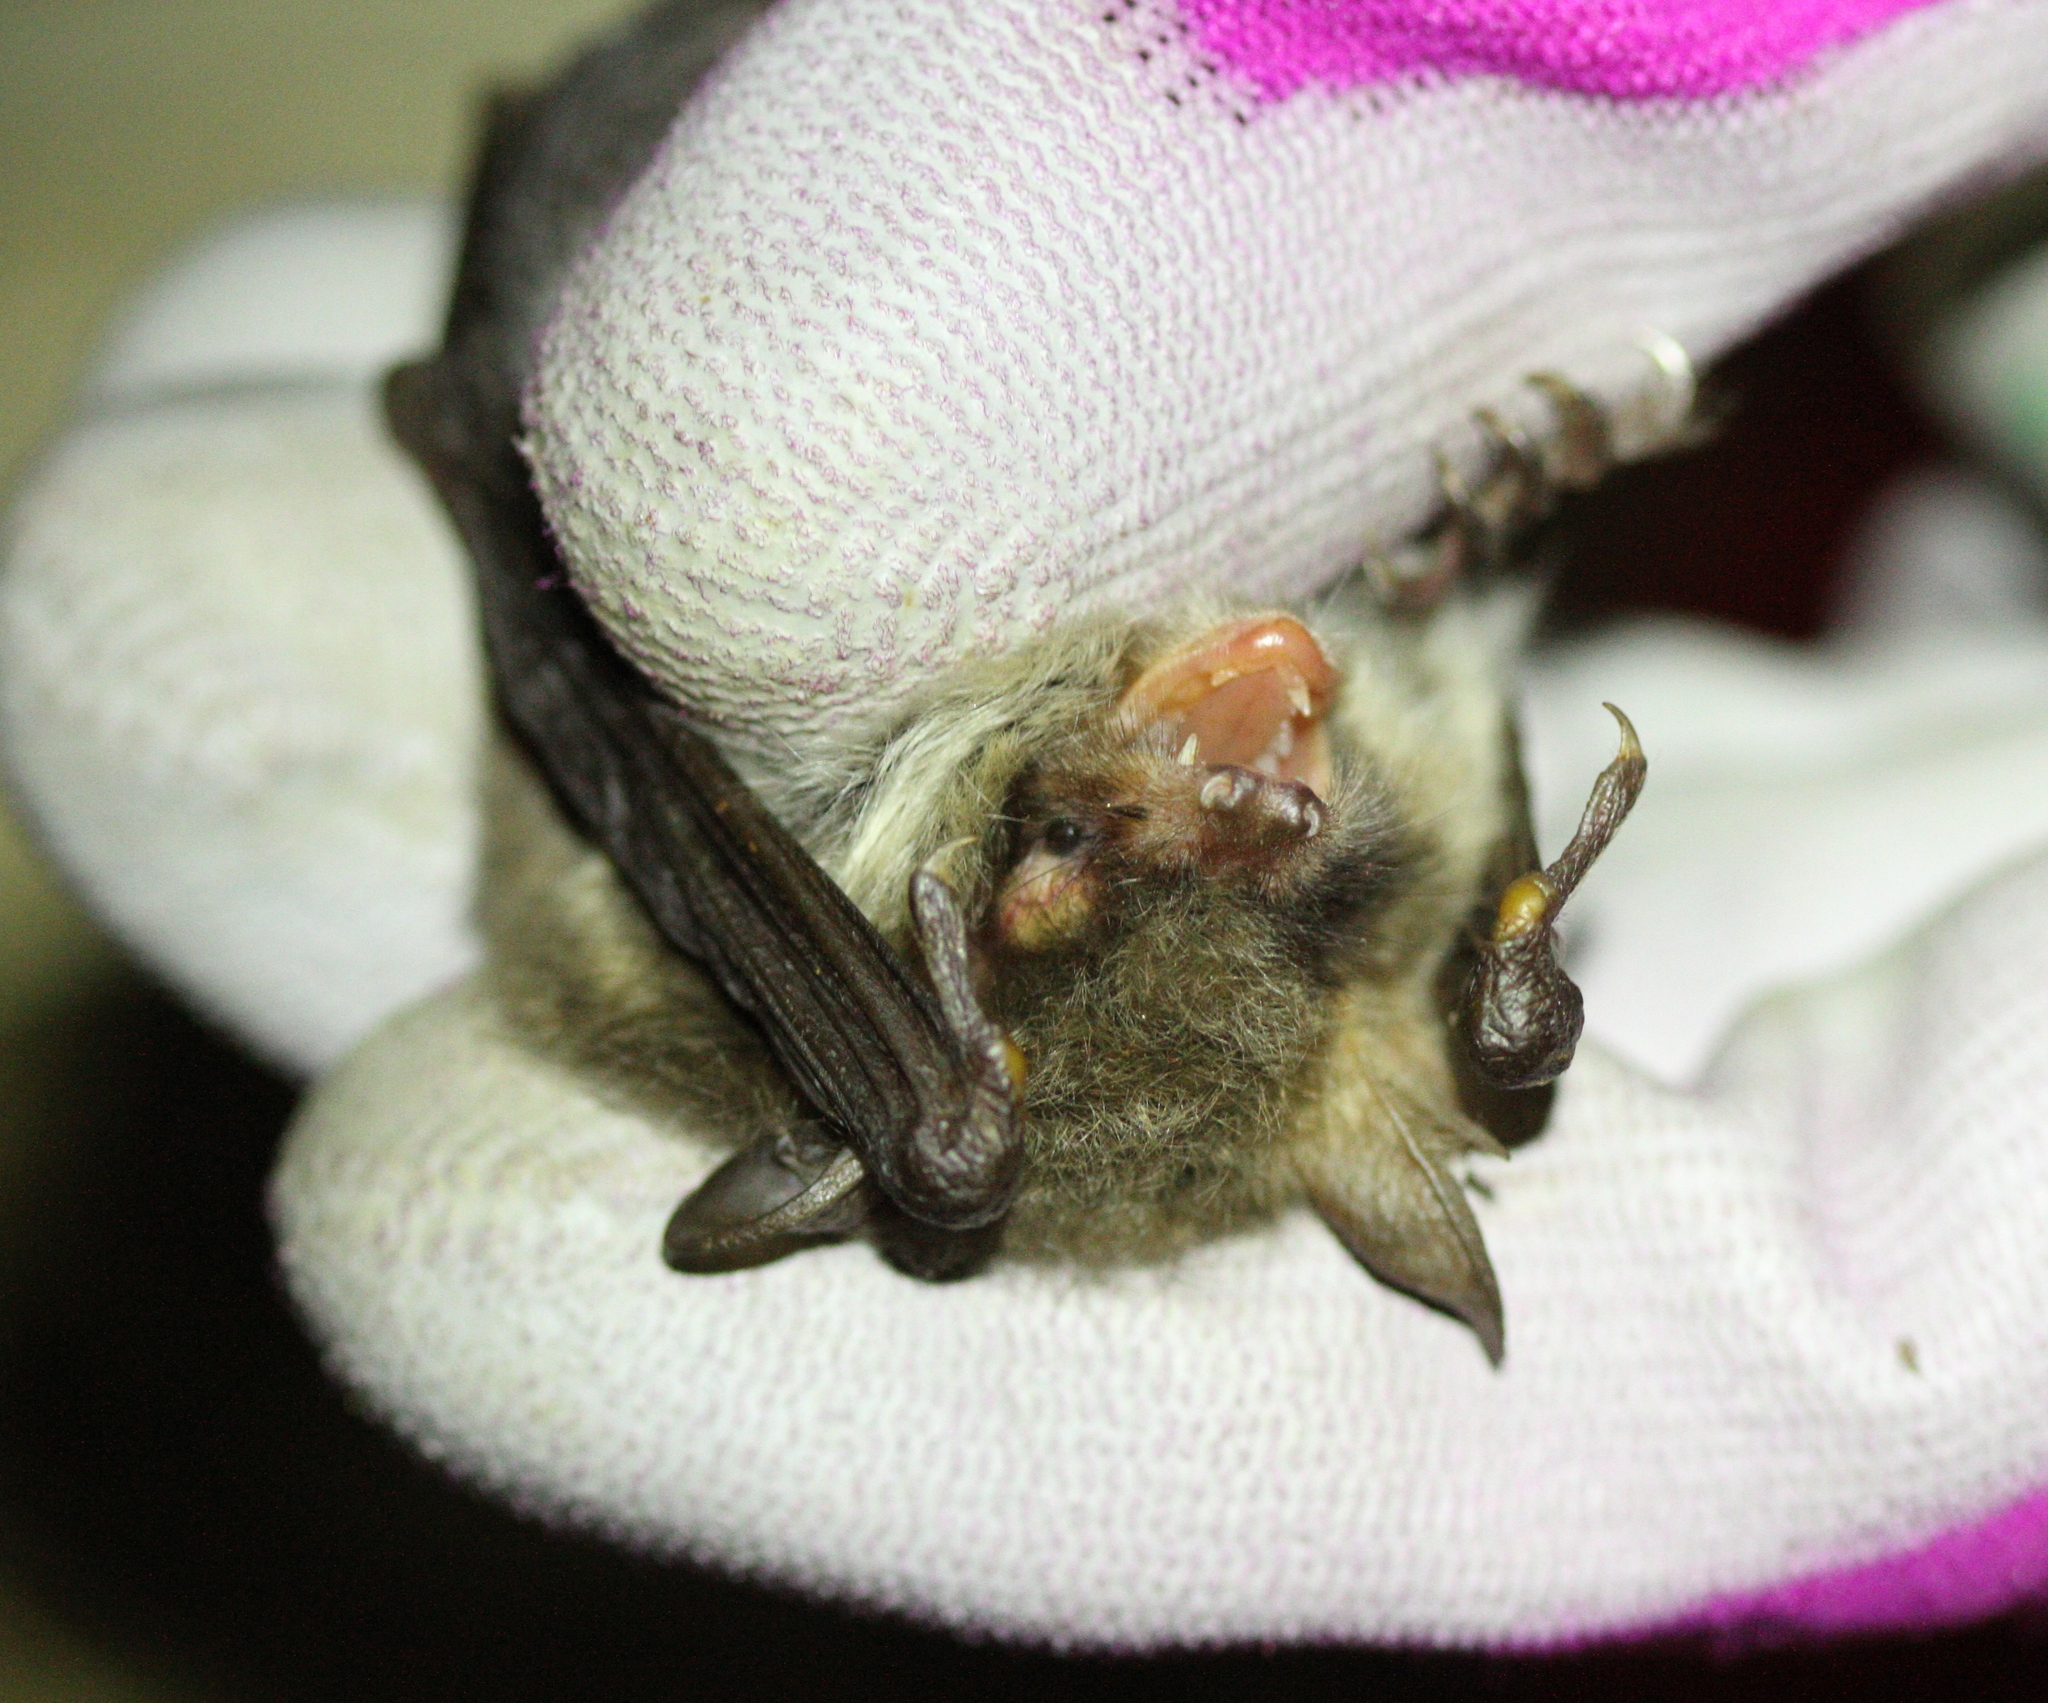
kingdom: Animalia
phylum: Chordata
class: Mammalia
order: Chiroptera
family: Vespertilionidae
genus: Myotis
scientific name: Myotis crypticus
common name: Cryptic myotis
